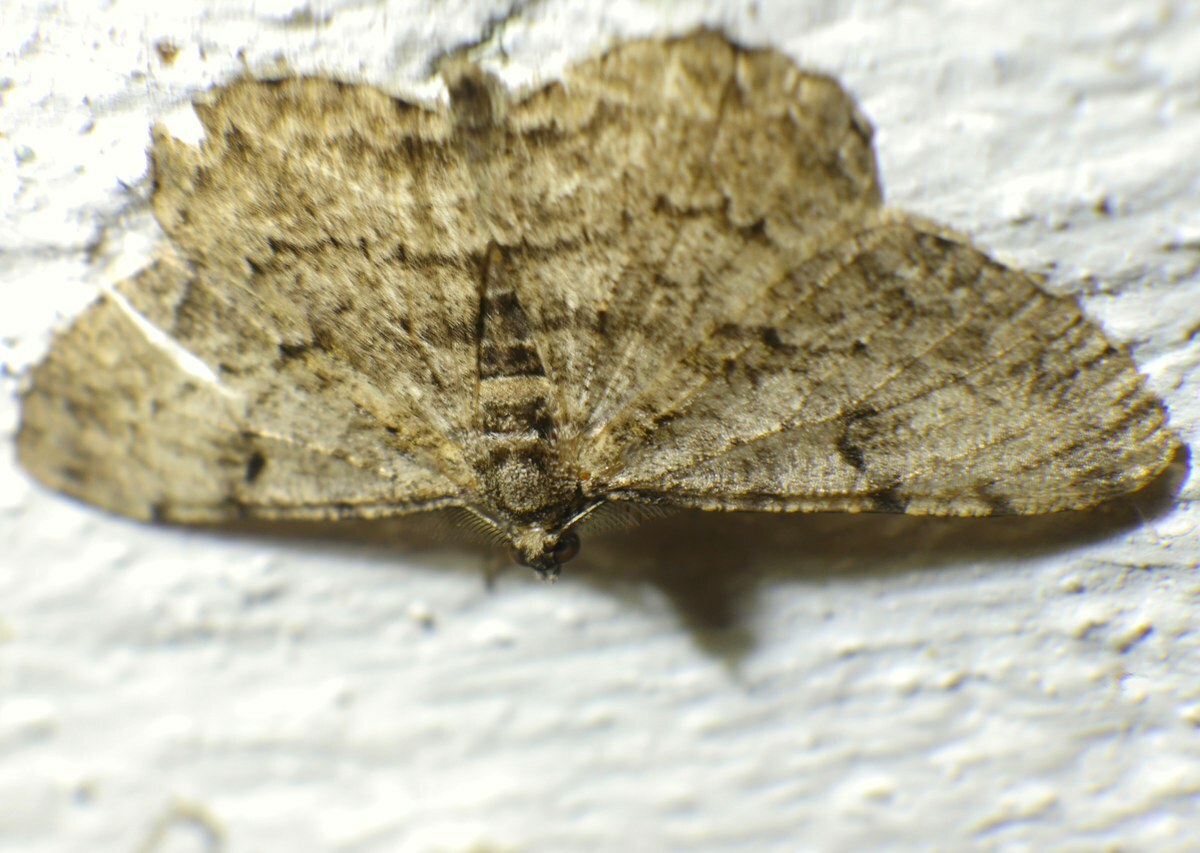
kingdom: Animalia
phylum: Arthropoda
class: Insecta
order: Lepidoptera
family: Geometridae
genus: Peribatodes
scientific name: Peribatodes rhomboidaria
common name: Willow beauty
